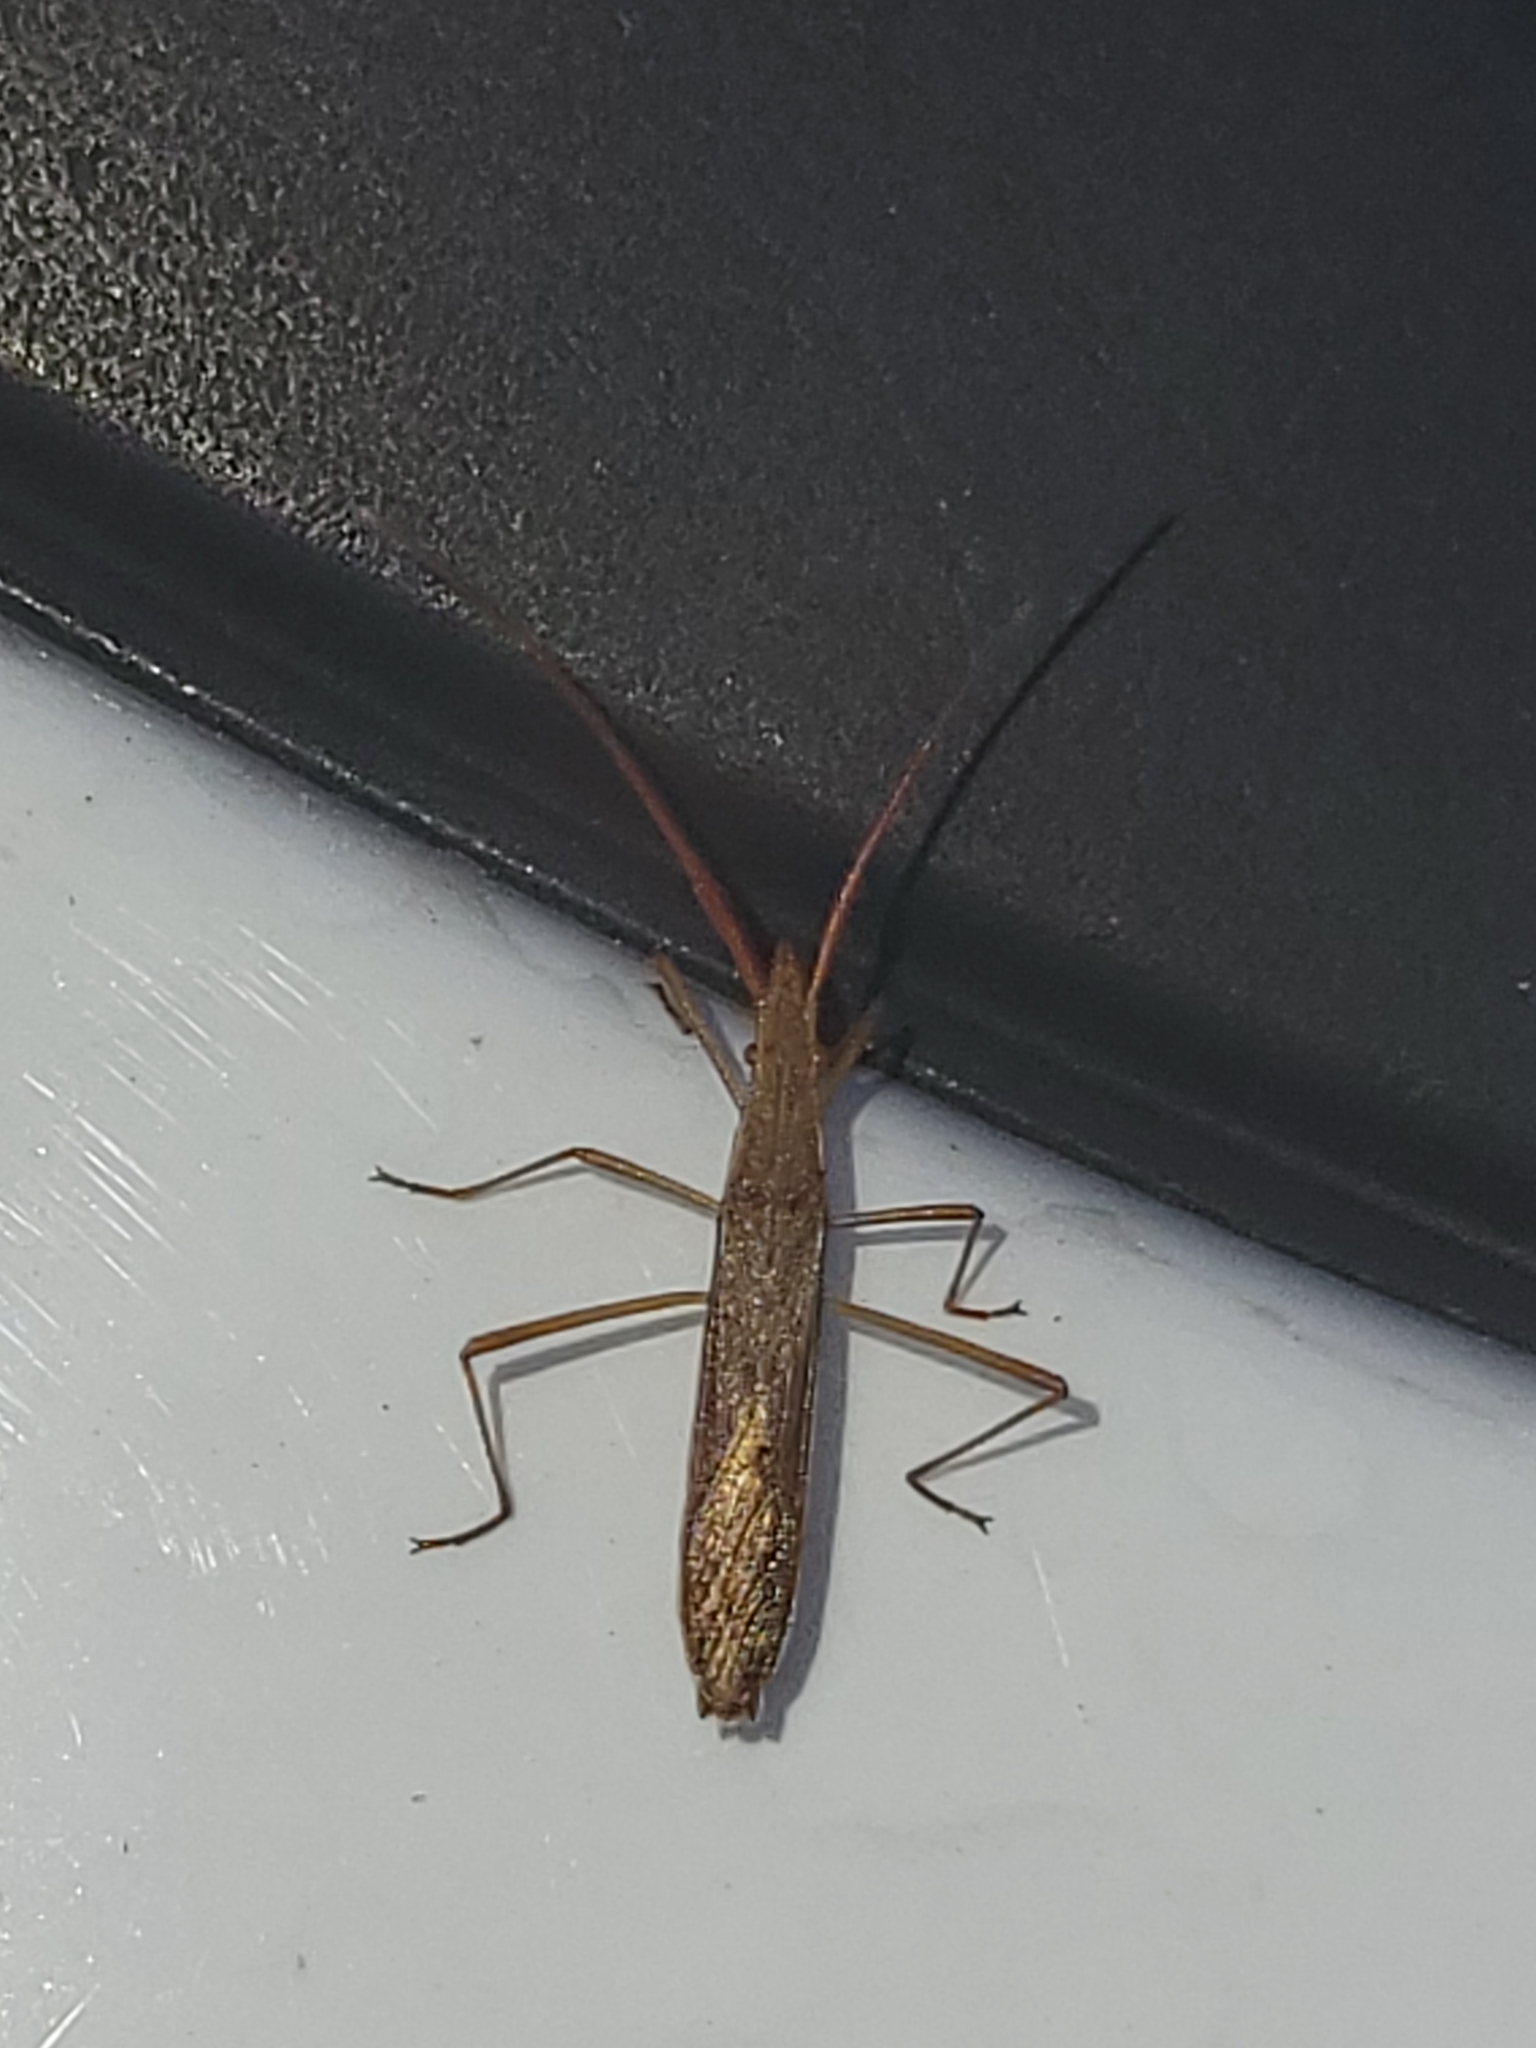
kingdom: Animalia
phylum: Arthropoda
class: Insecta
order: Hemiptera
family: Alydidae
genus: Protenor
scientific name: Protenor belfragei
